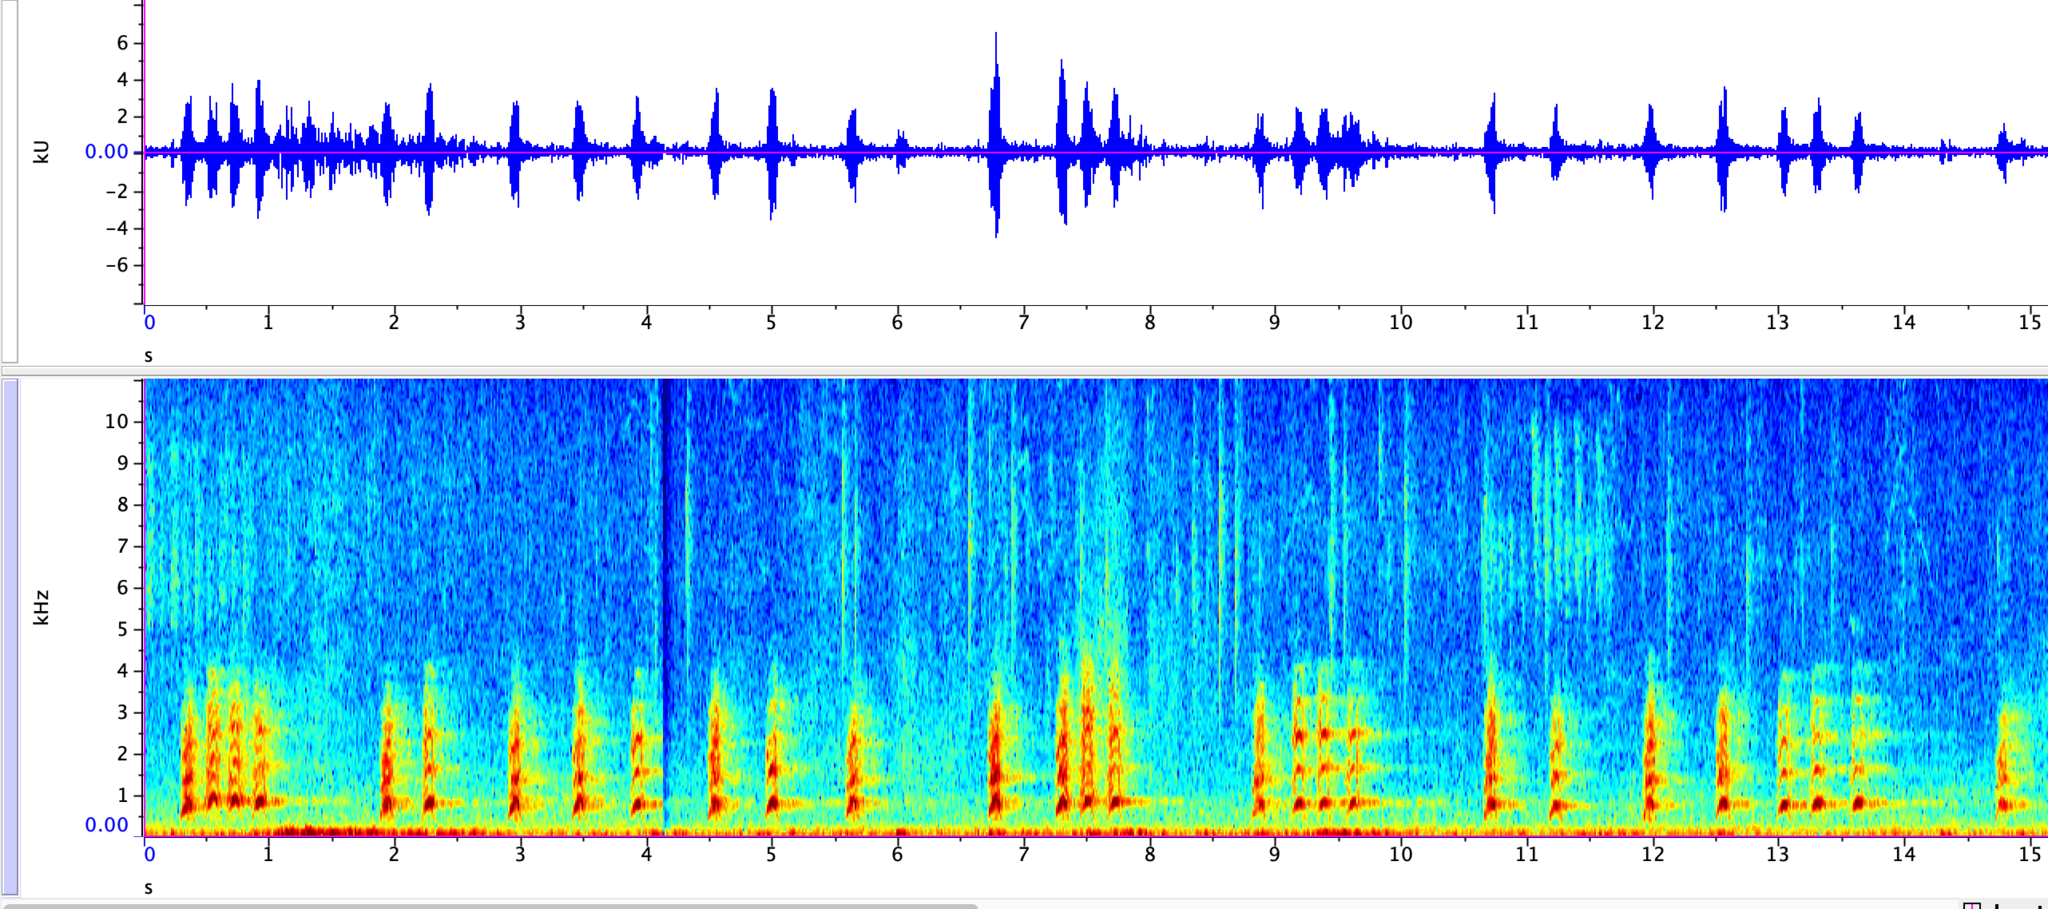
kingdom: Animalia
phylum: Chordata
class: Mammalia
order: Carnivora
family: Canidae
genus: Canis
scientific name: Canis latrans
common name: Coyote
